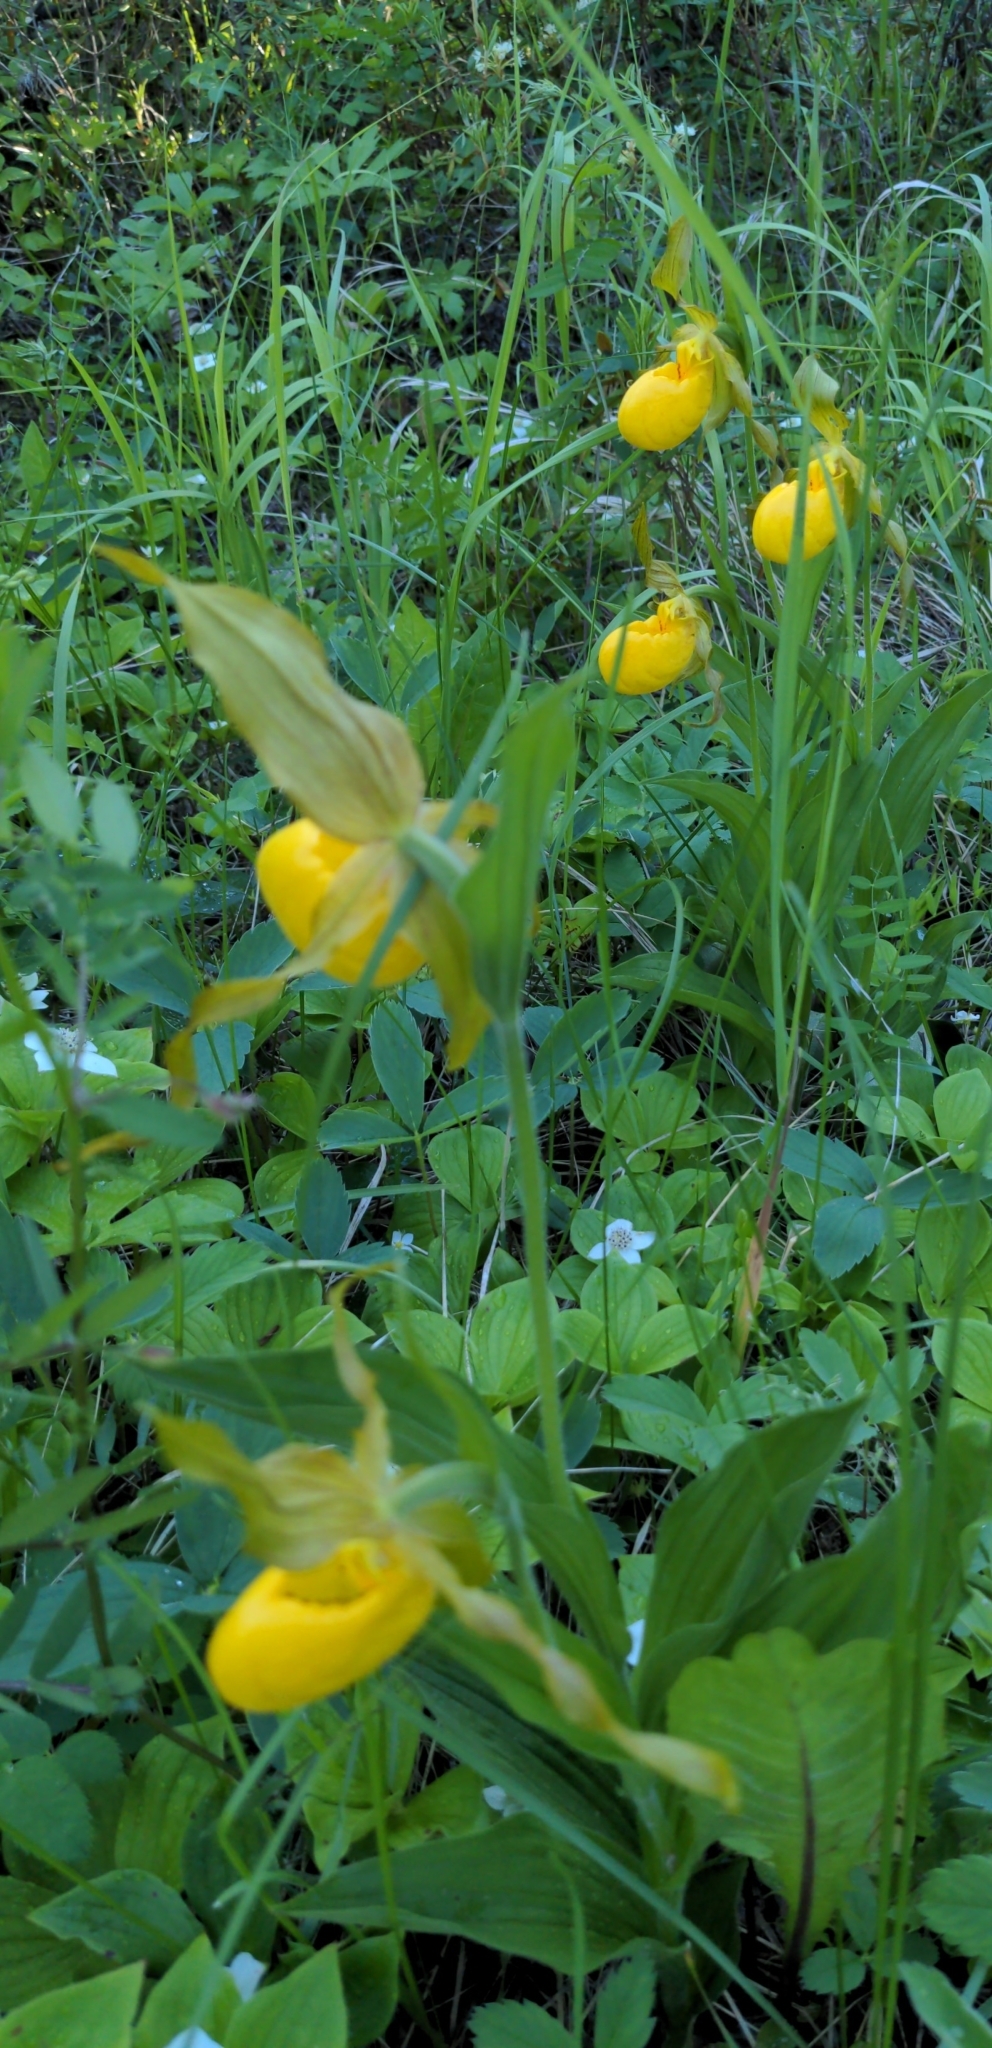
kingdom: Plantae
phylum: Tracheophyta
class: Liliopsida
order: Asparagales
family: Orchidaceae
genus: Cypripedium
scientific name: Cypripedium parviflorum
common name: American yellow lady's-slipper
